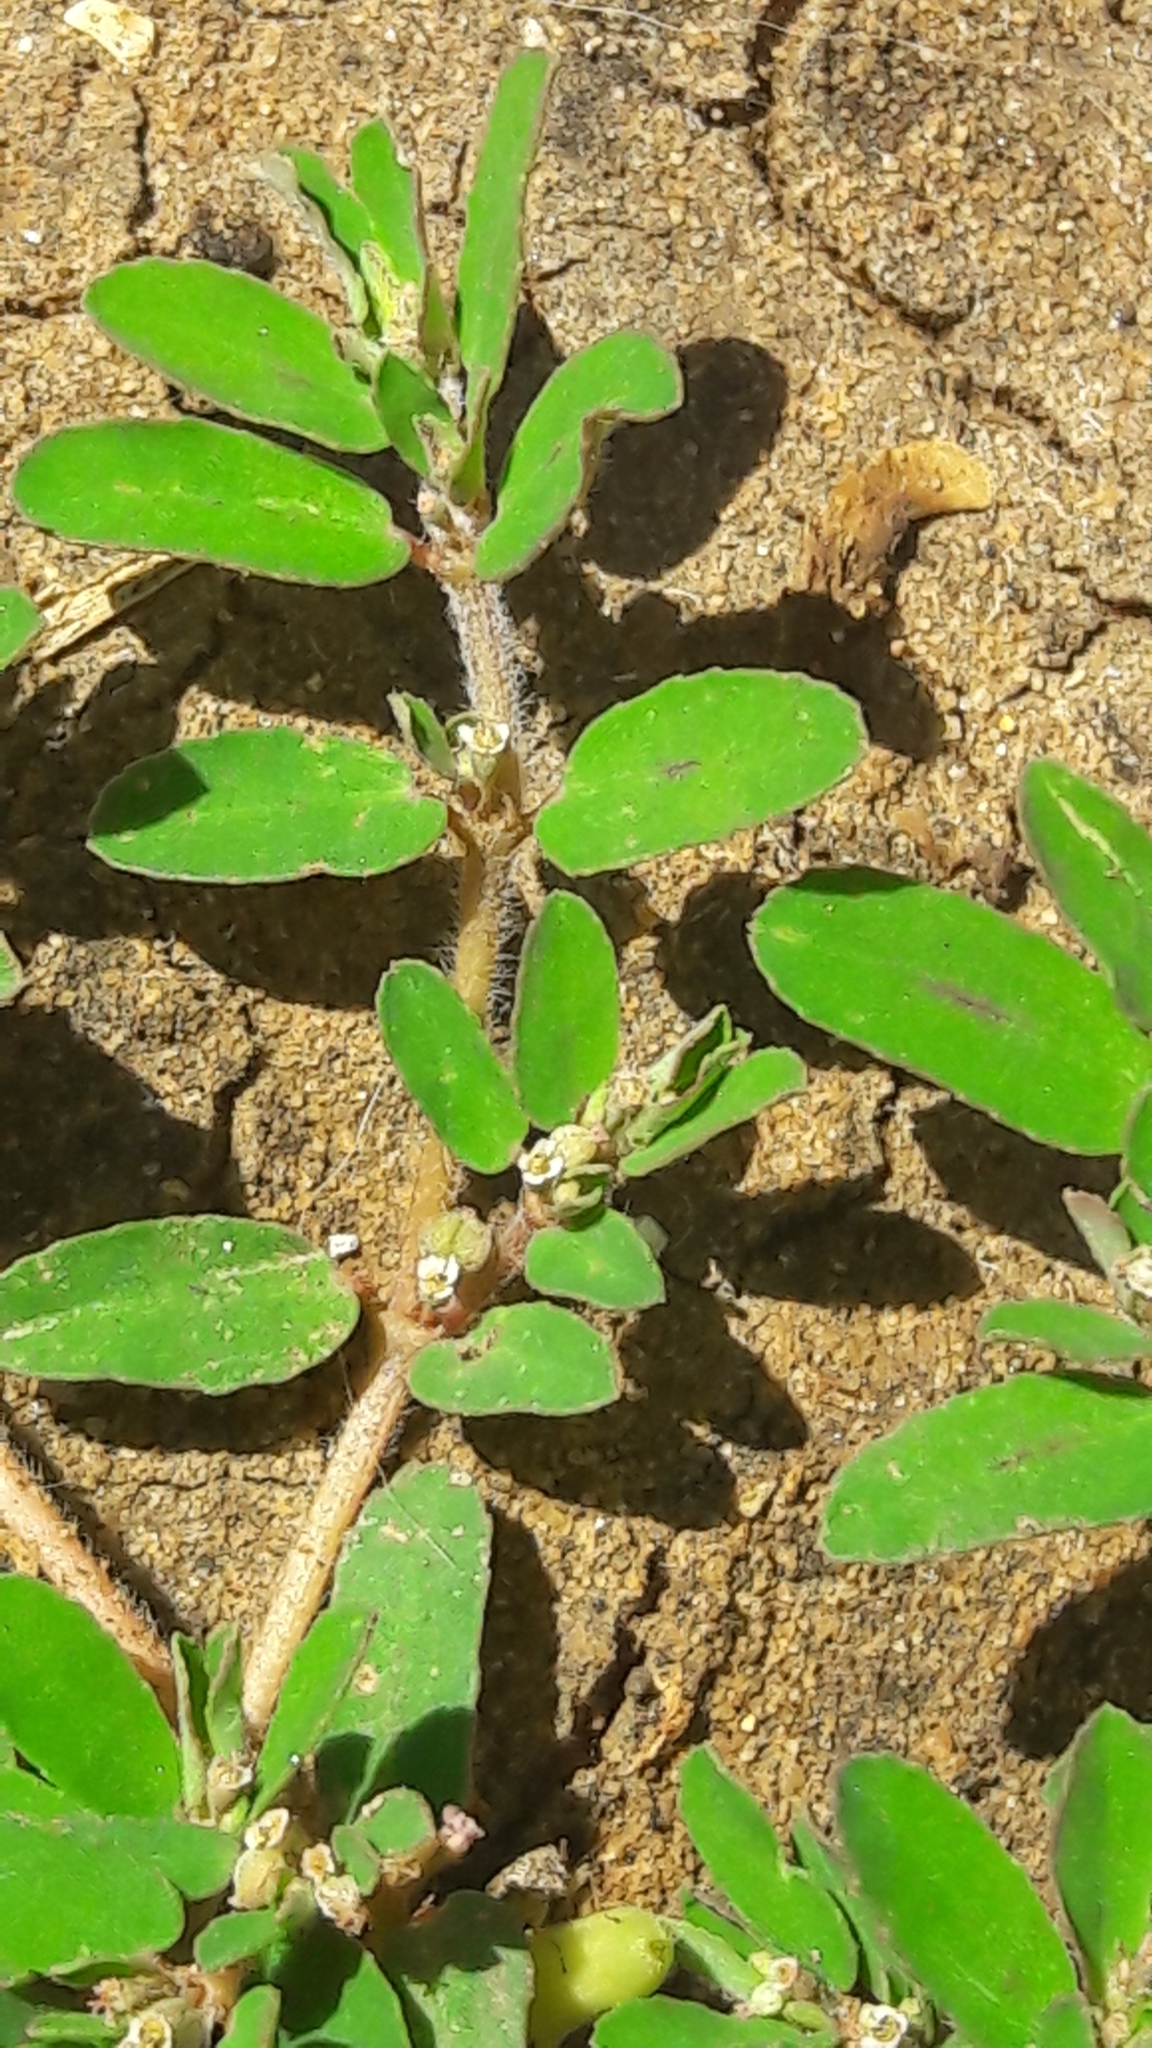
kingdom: Plantae
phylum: Tracheophyta
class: Magnoliopsida
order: Malpighiales
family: Euphorbiaceae
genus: Euphorbia
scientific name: Euphorbia maculata
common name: Spotted spurge
